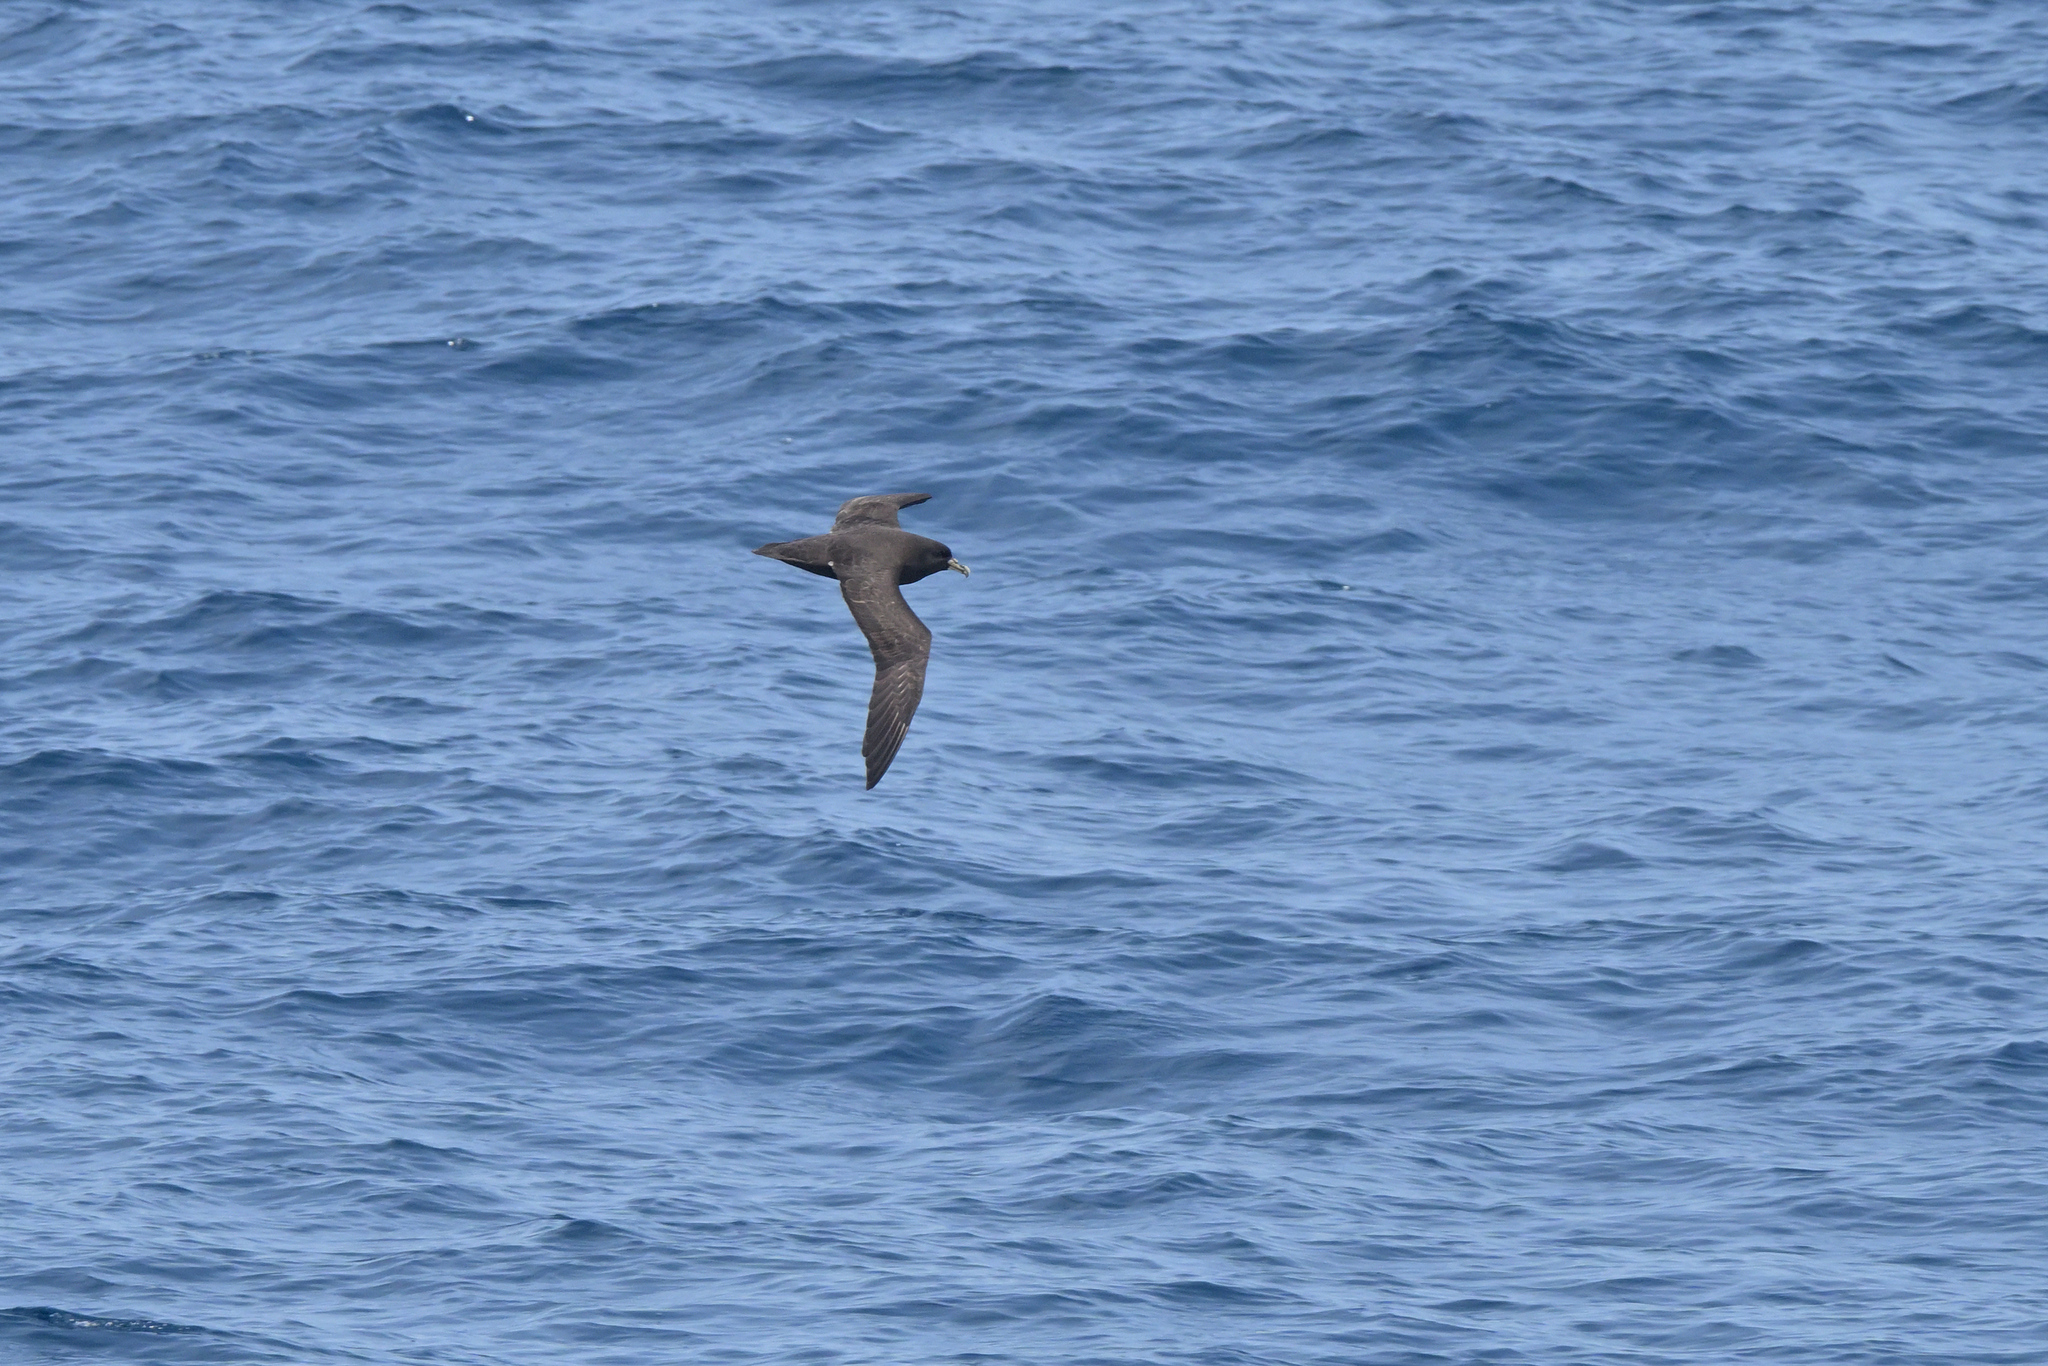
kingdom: Animalia
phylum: Chordata
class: Aves
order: Procellariiformes
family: Procellariidae
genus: Procellaria
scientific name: Procellaria aequinoctialis
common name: White-chinned petrel
